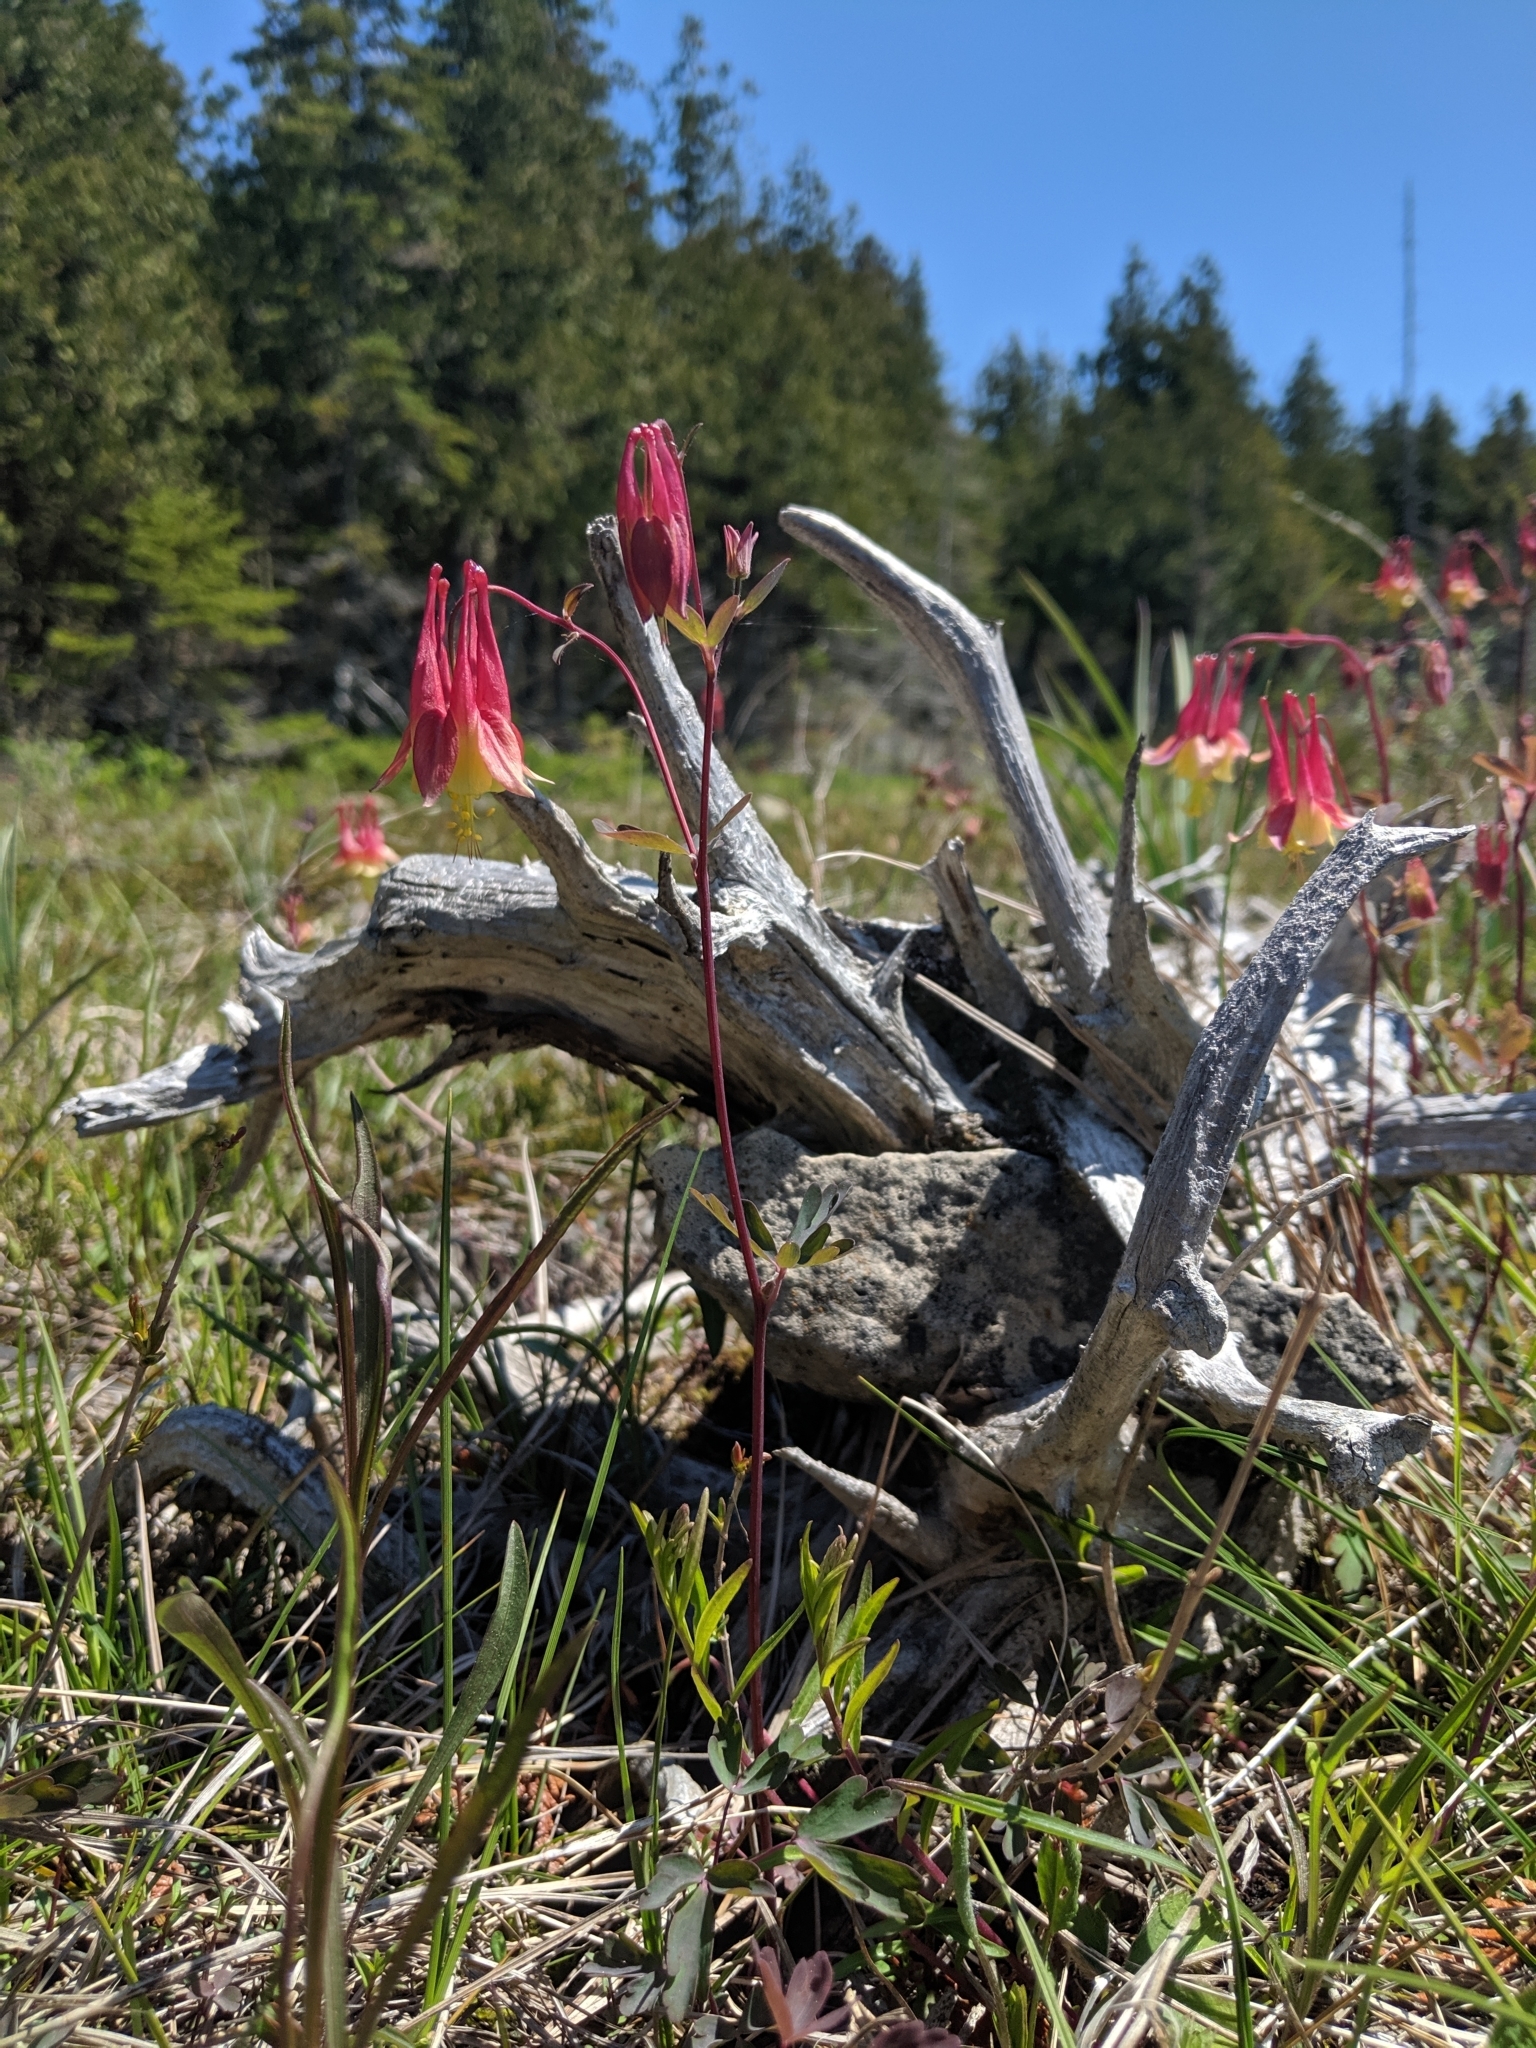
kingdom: Plantae
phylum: Tracheophyta
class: Magnoliopsida
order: Ranunculales
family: Ranunculaceae
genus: Aquilegia
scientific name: Aquilegia canadensis
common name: American columbine
